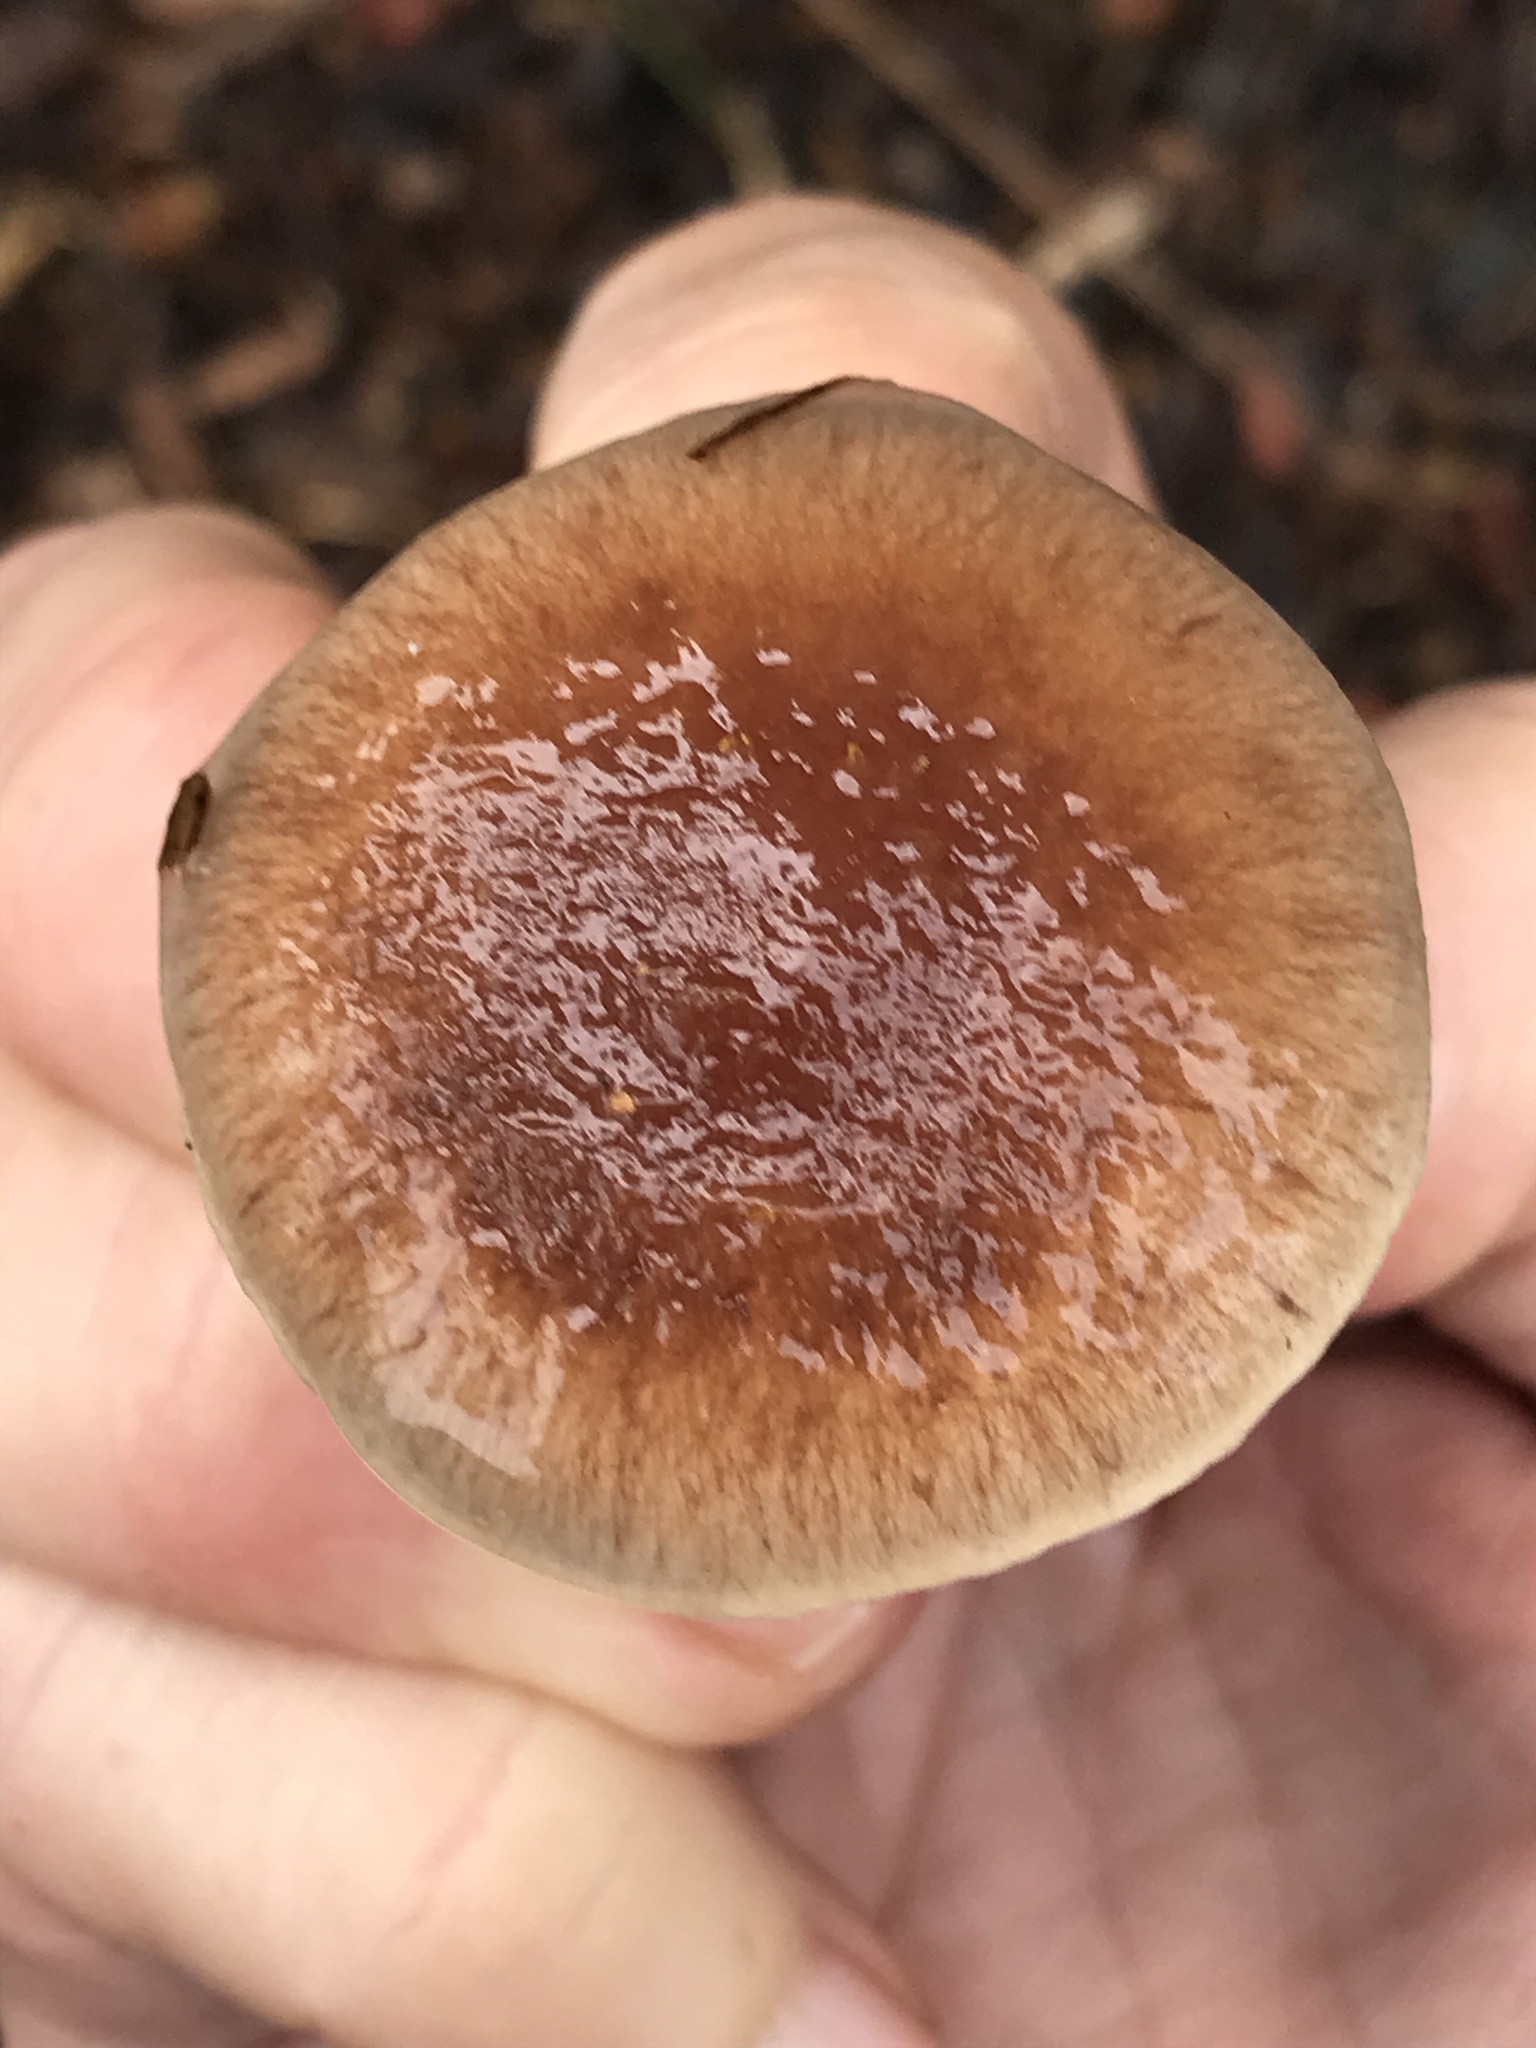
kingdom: Fungi
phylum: Basidiomycota
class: Agaricomycetes
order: Agaricales
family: Strophariaceae
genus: Pholiota
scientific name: Pholiota velaglutinosa
